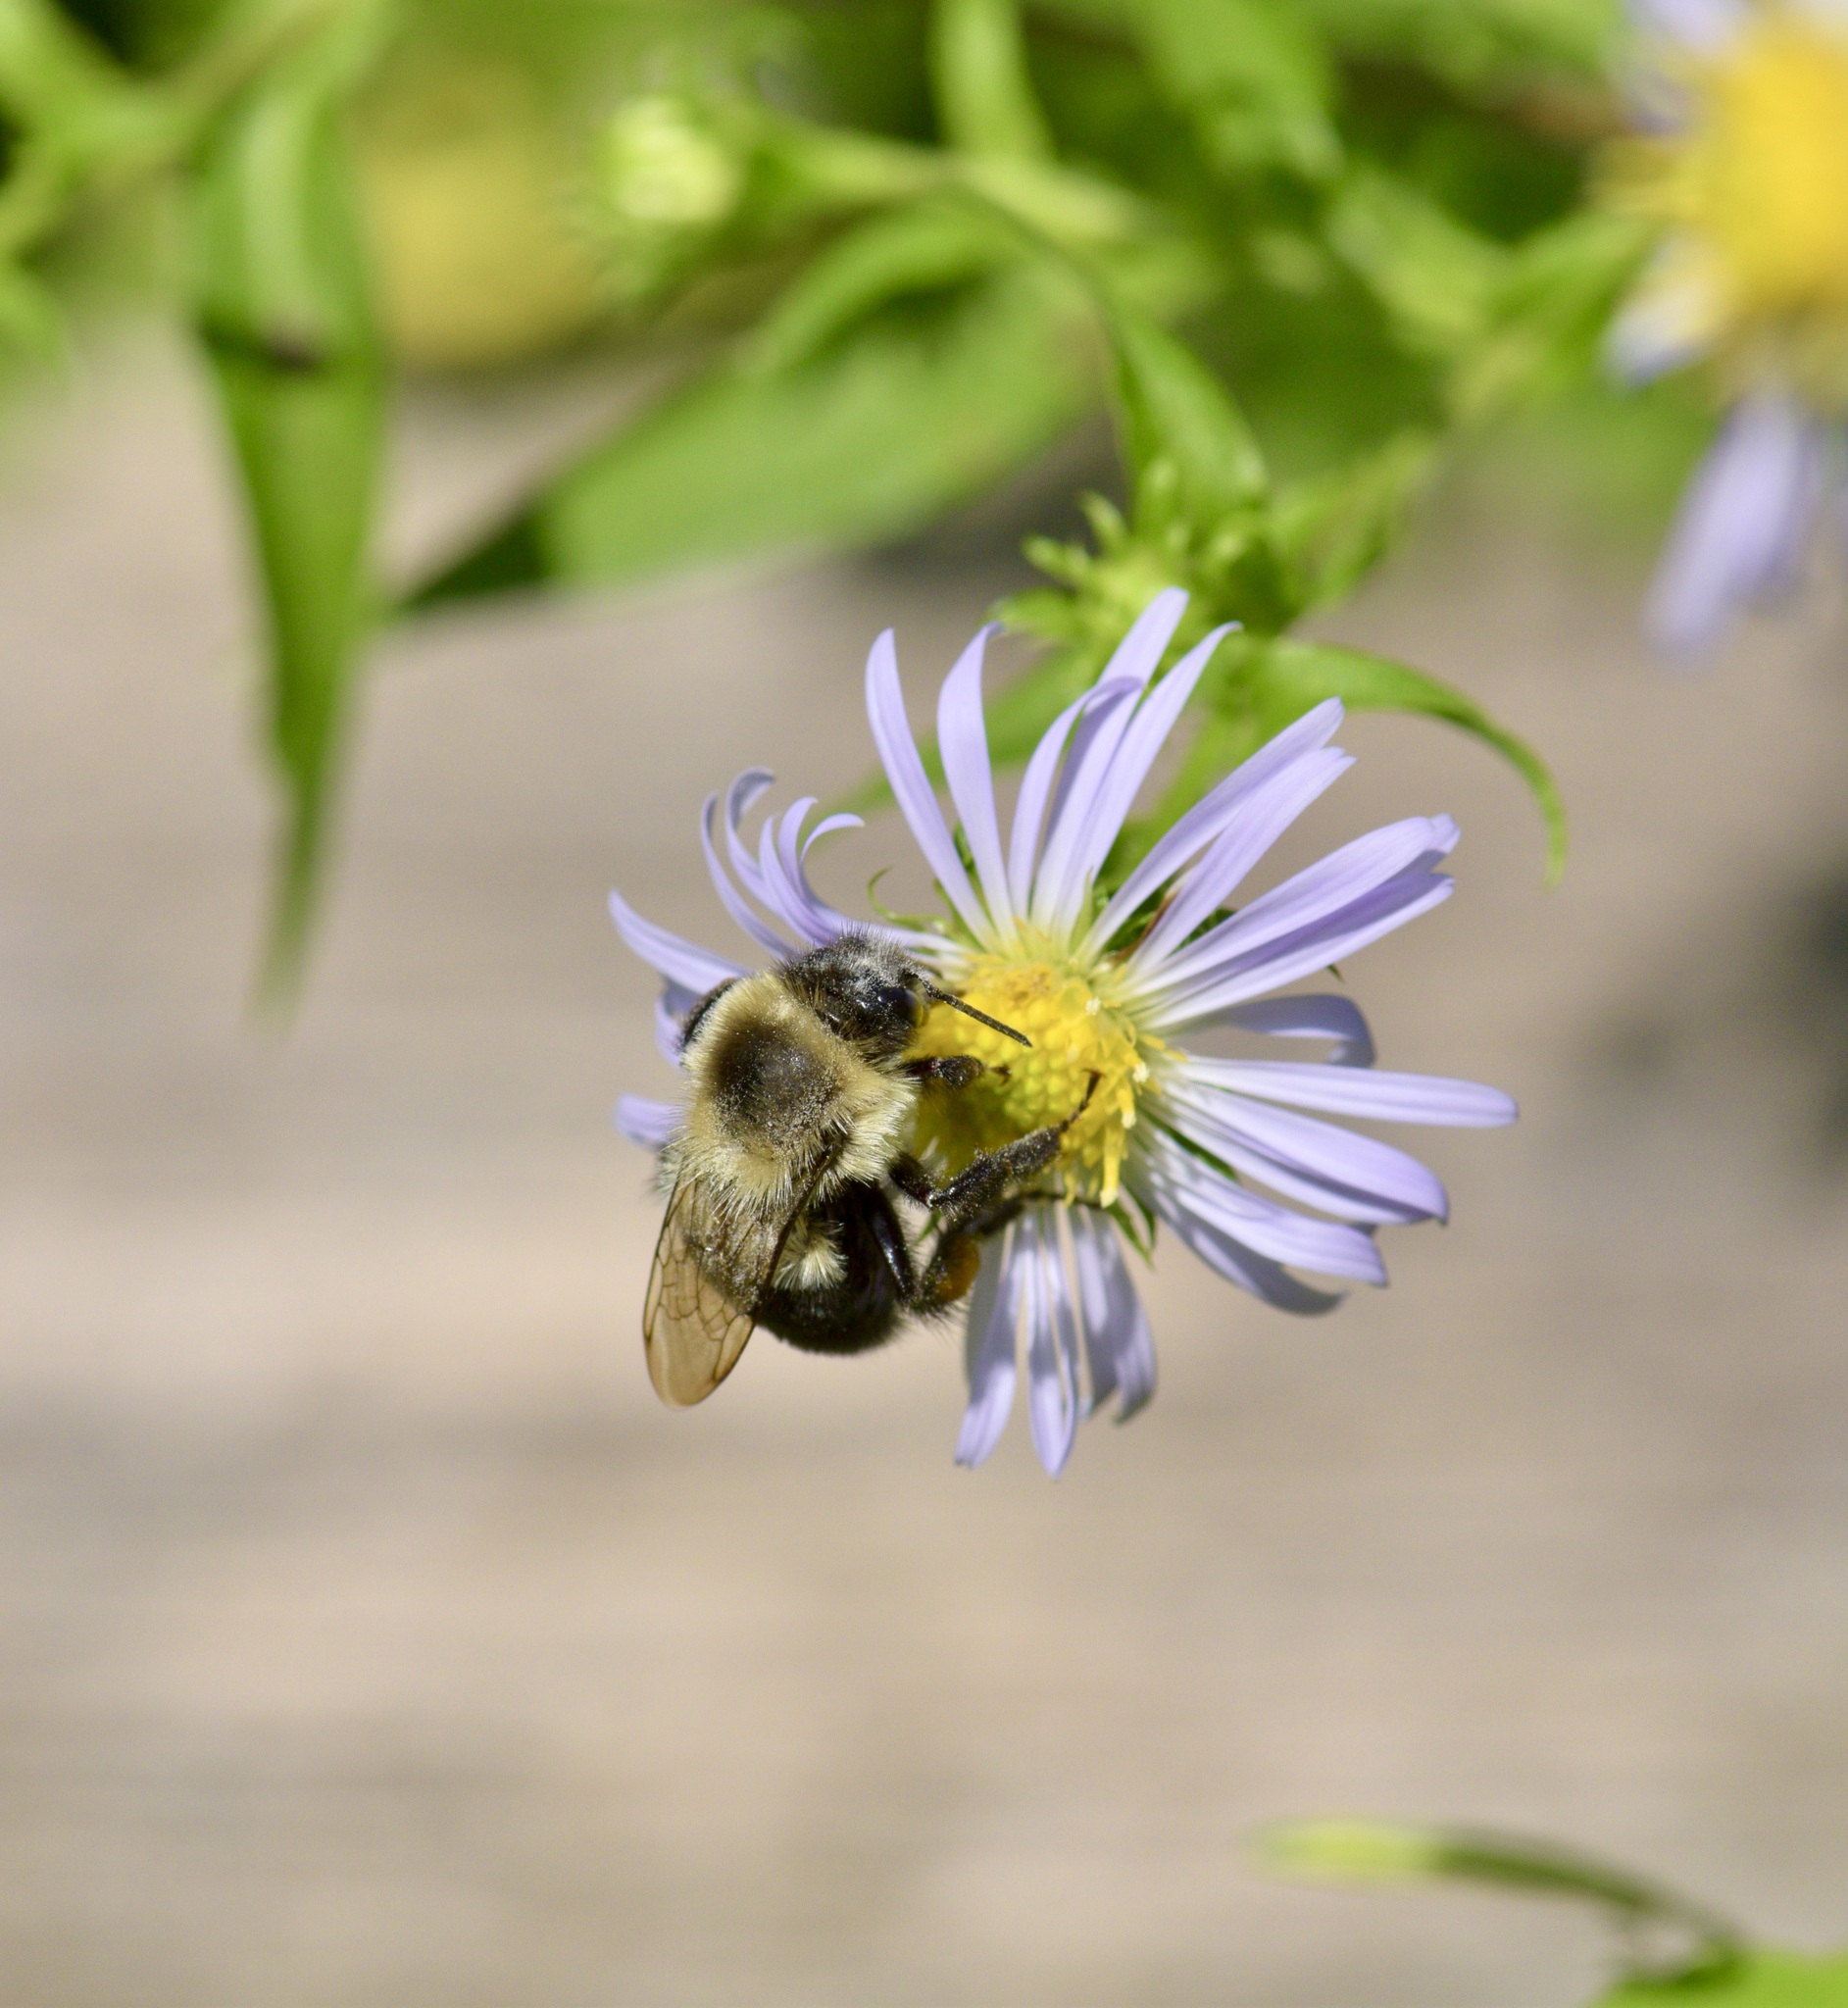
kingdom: Animalia
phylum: Arthropoda
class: Insecta
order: Hymenoptera
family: Apidae
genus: Bombus
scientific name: Bombus impatiens
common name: Common eastern bumble bee
